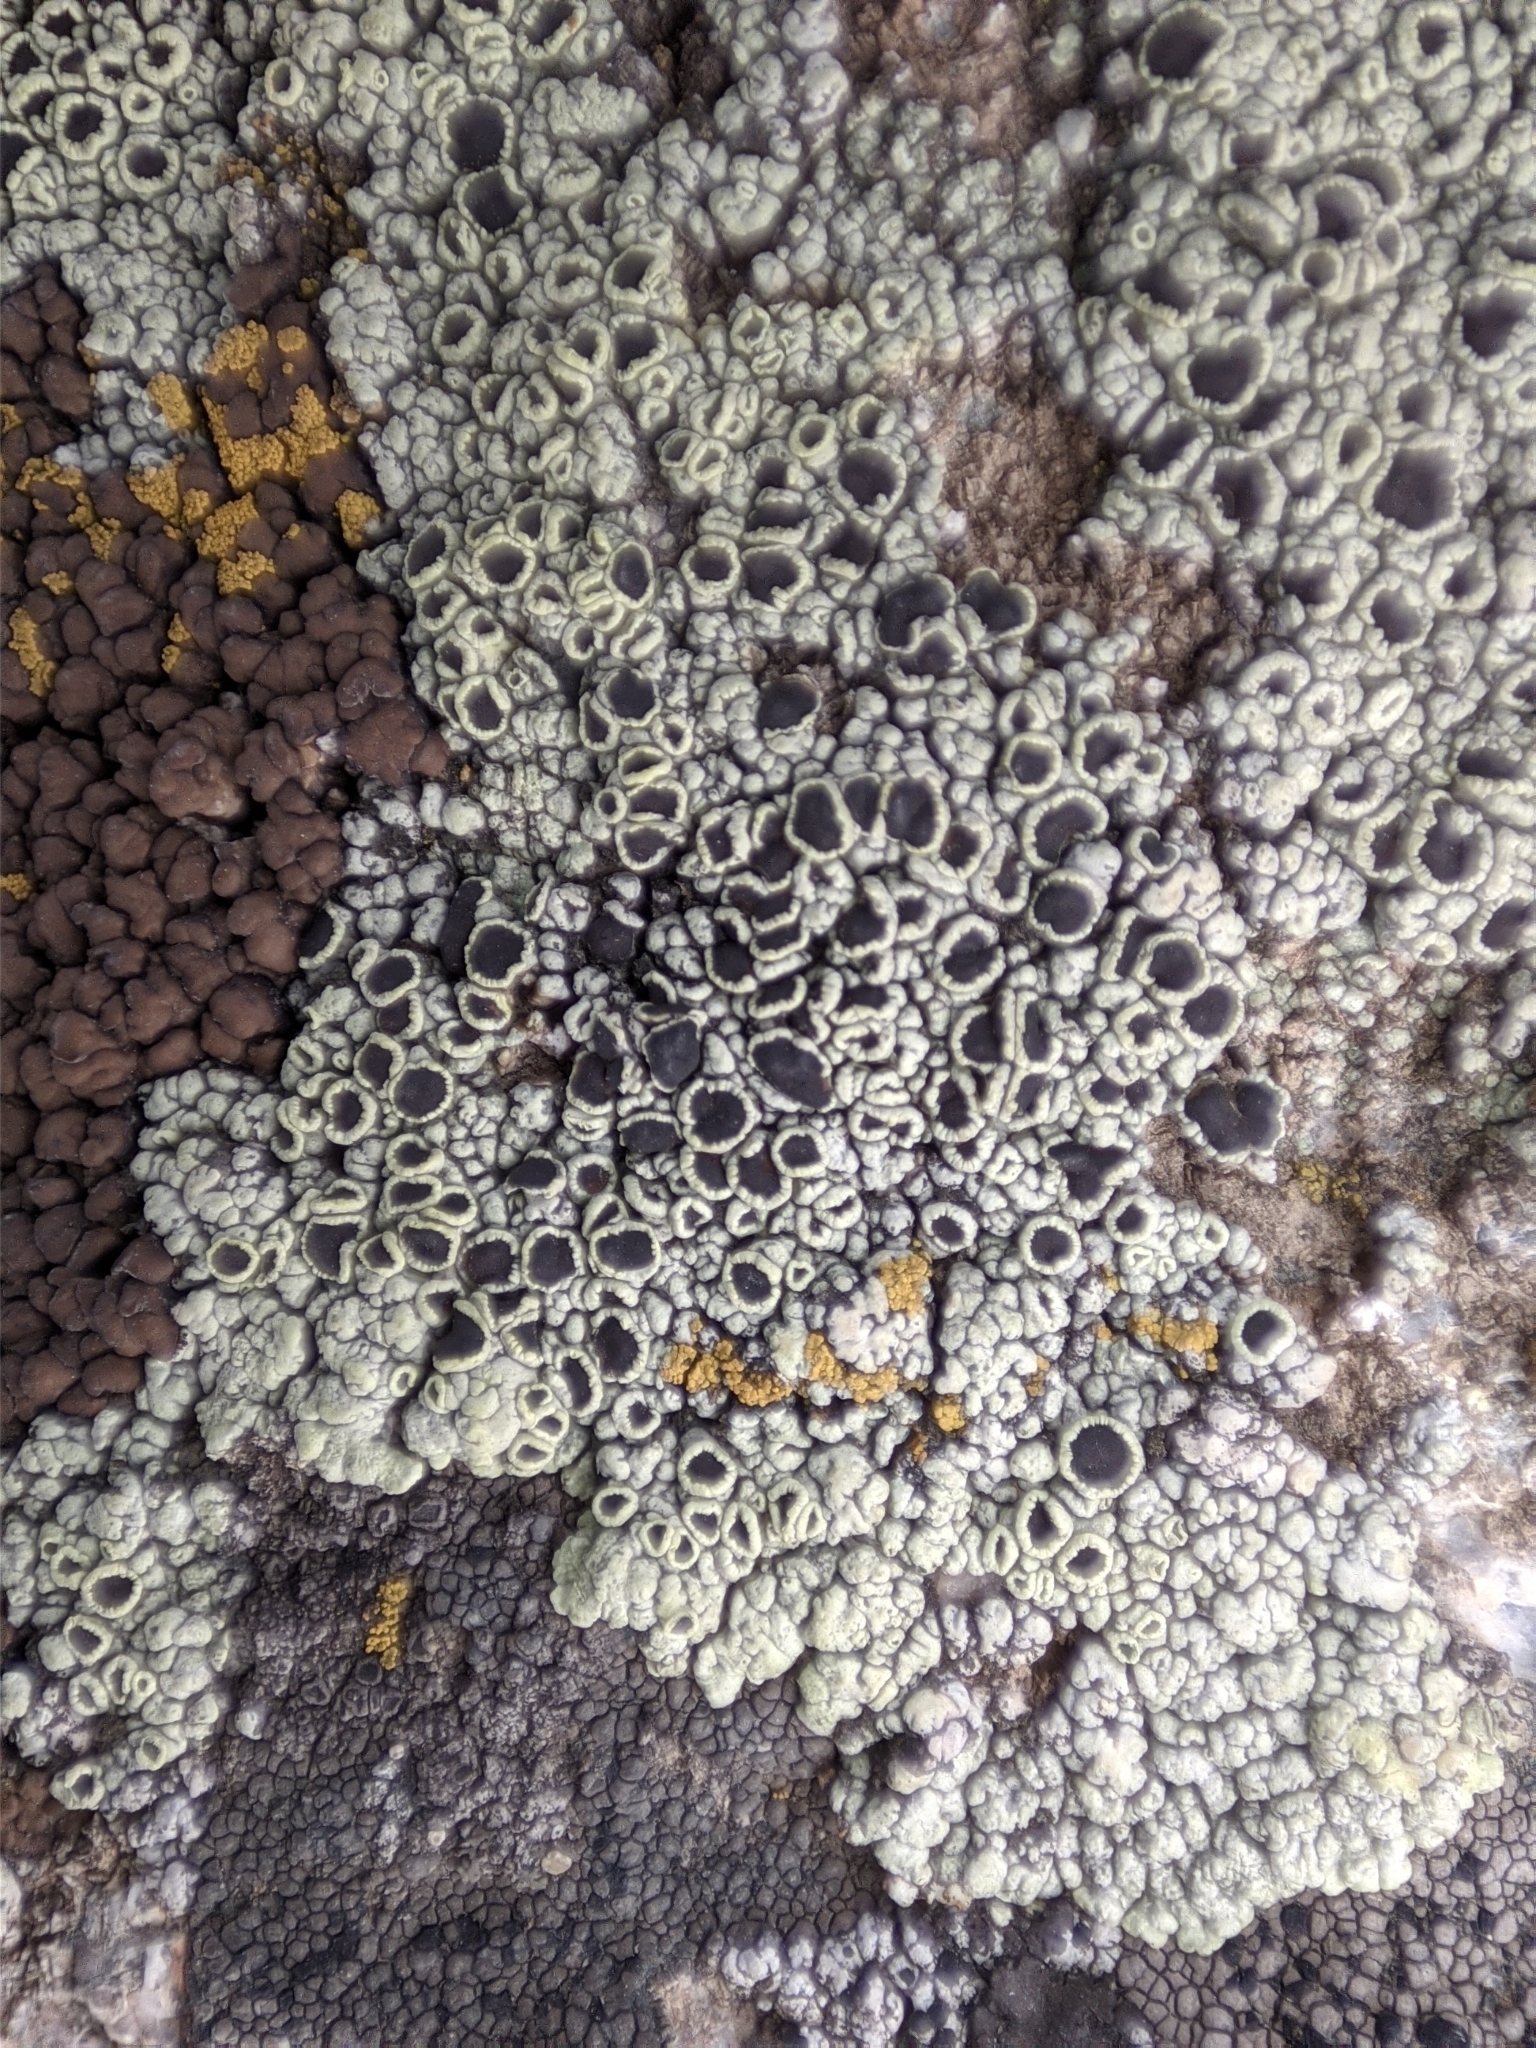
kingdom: Fungi
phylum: Ascomycota
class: Lecanoromycetes
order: Lecanorales
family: Lecanoraceae
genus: Lecanora
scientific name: Lecanora argopholis
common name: Varying rim lichen
